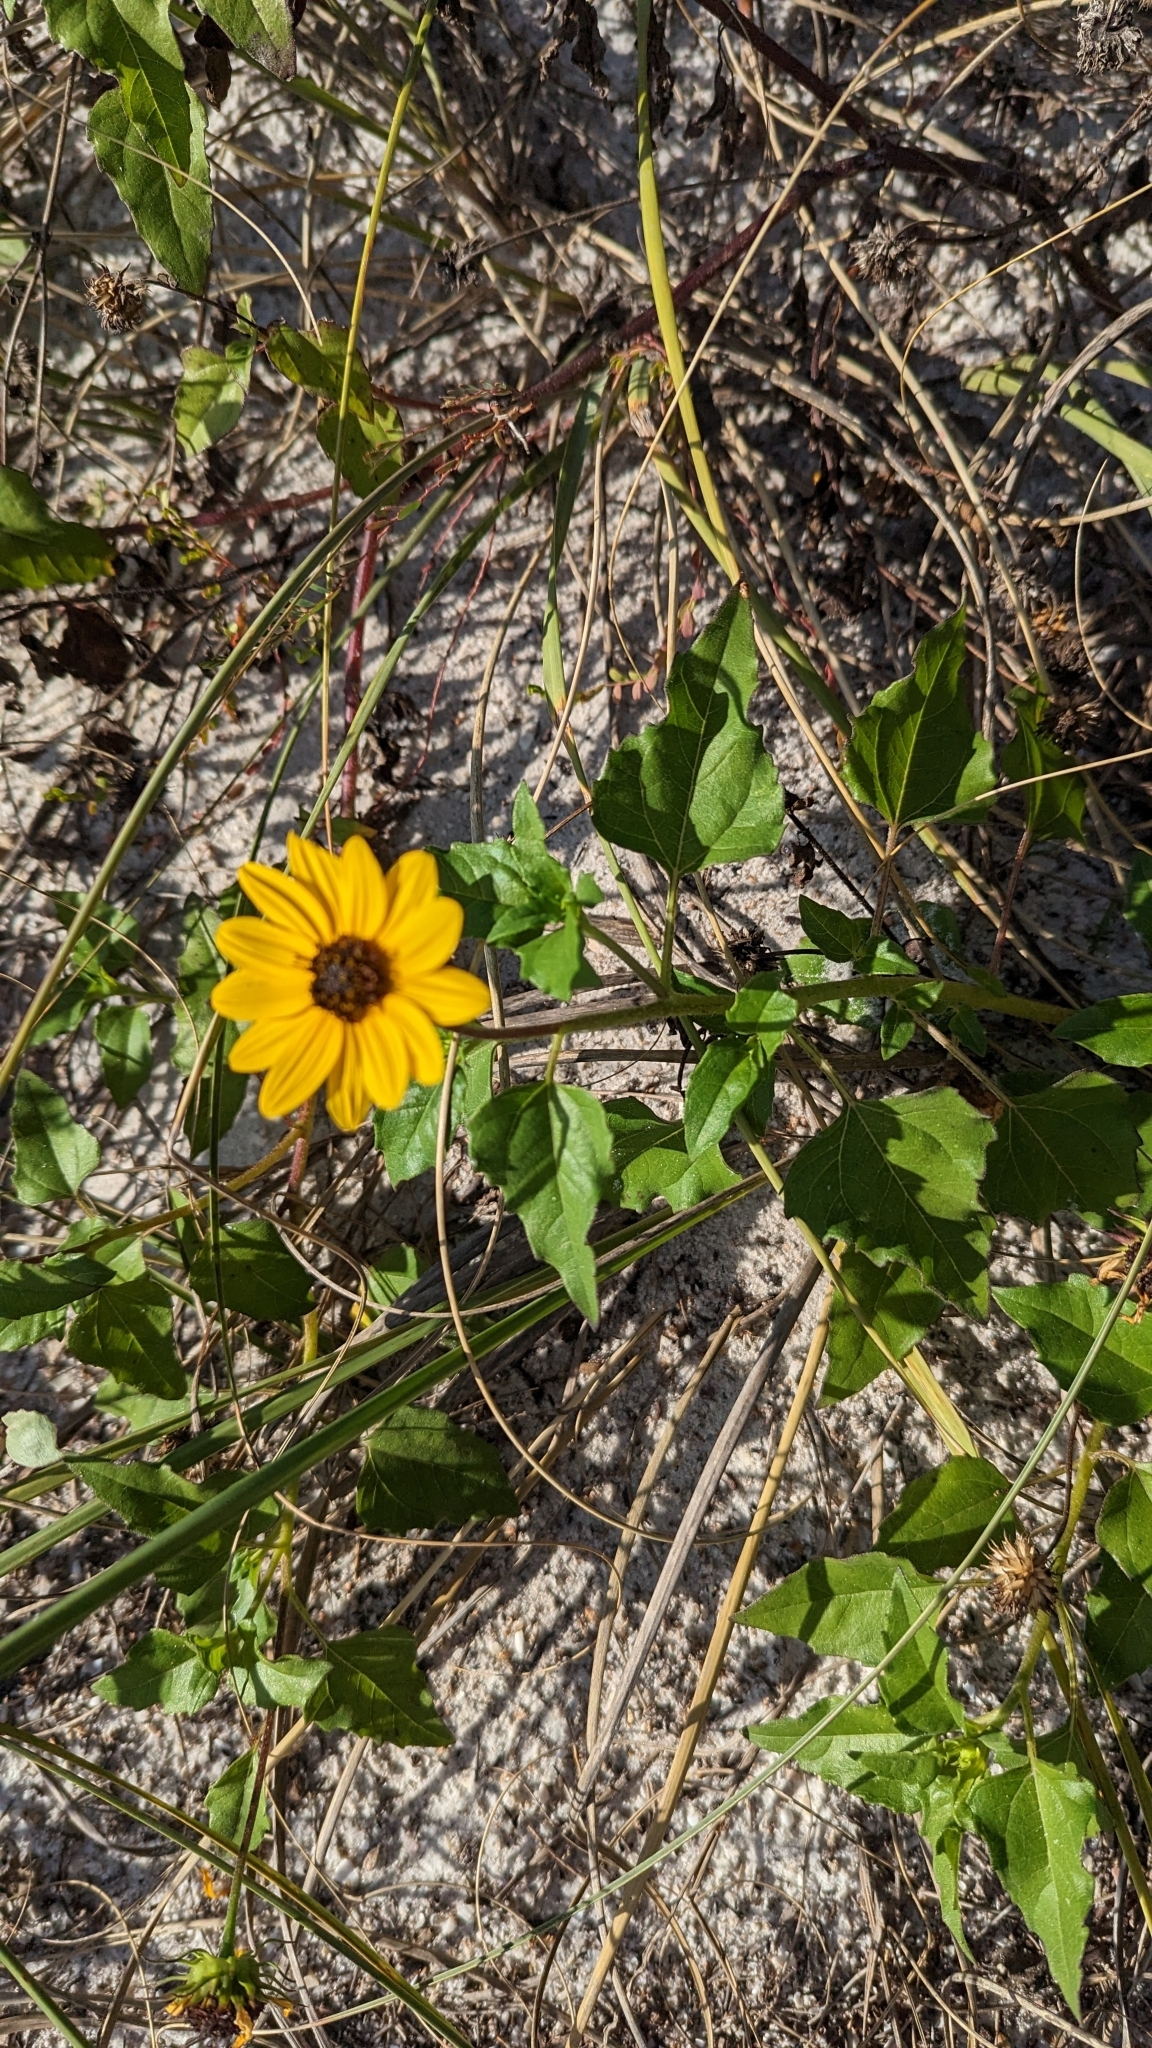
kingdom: Plantae
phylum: Tracheophyta
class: Magnoliopsida
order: Asterales
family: Asteraceae
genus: Helianthus
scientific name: Helianthus debilis
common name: Weak sunflower
